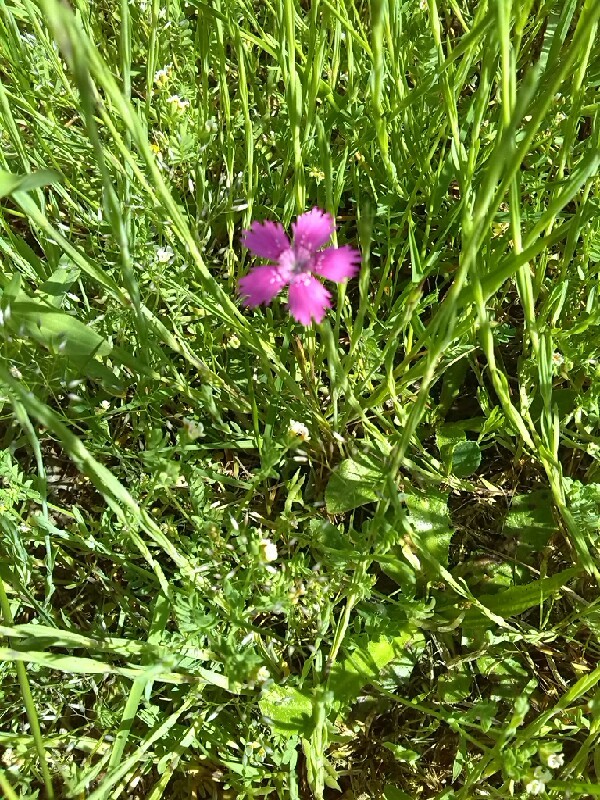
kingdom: Plantae
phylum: Tracheophyta
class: Magnoliopsida
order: Caryophyllales
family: Caryophyllaceae
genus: Dianthus
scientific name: Dianthus deltoides
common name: Maiden pink
